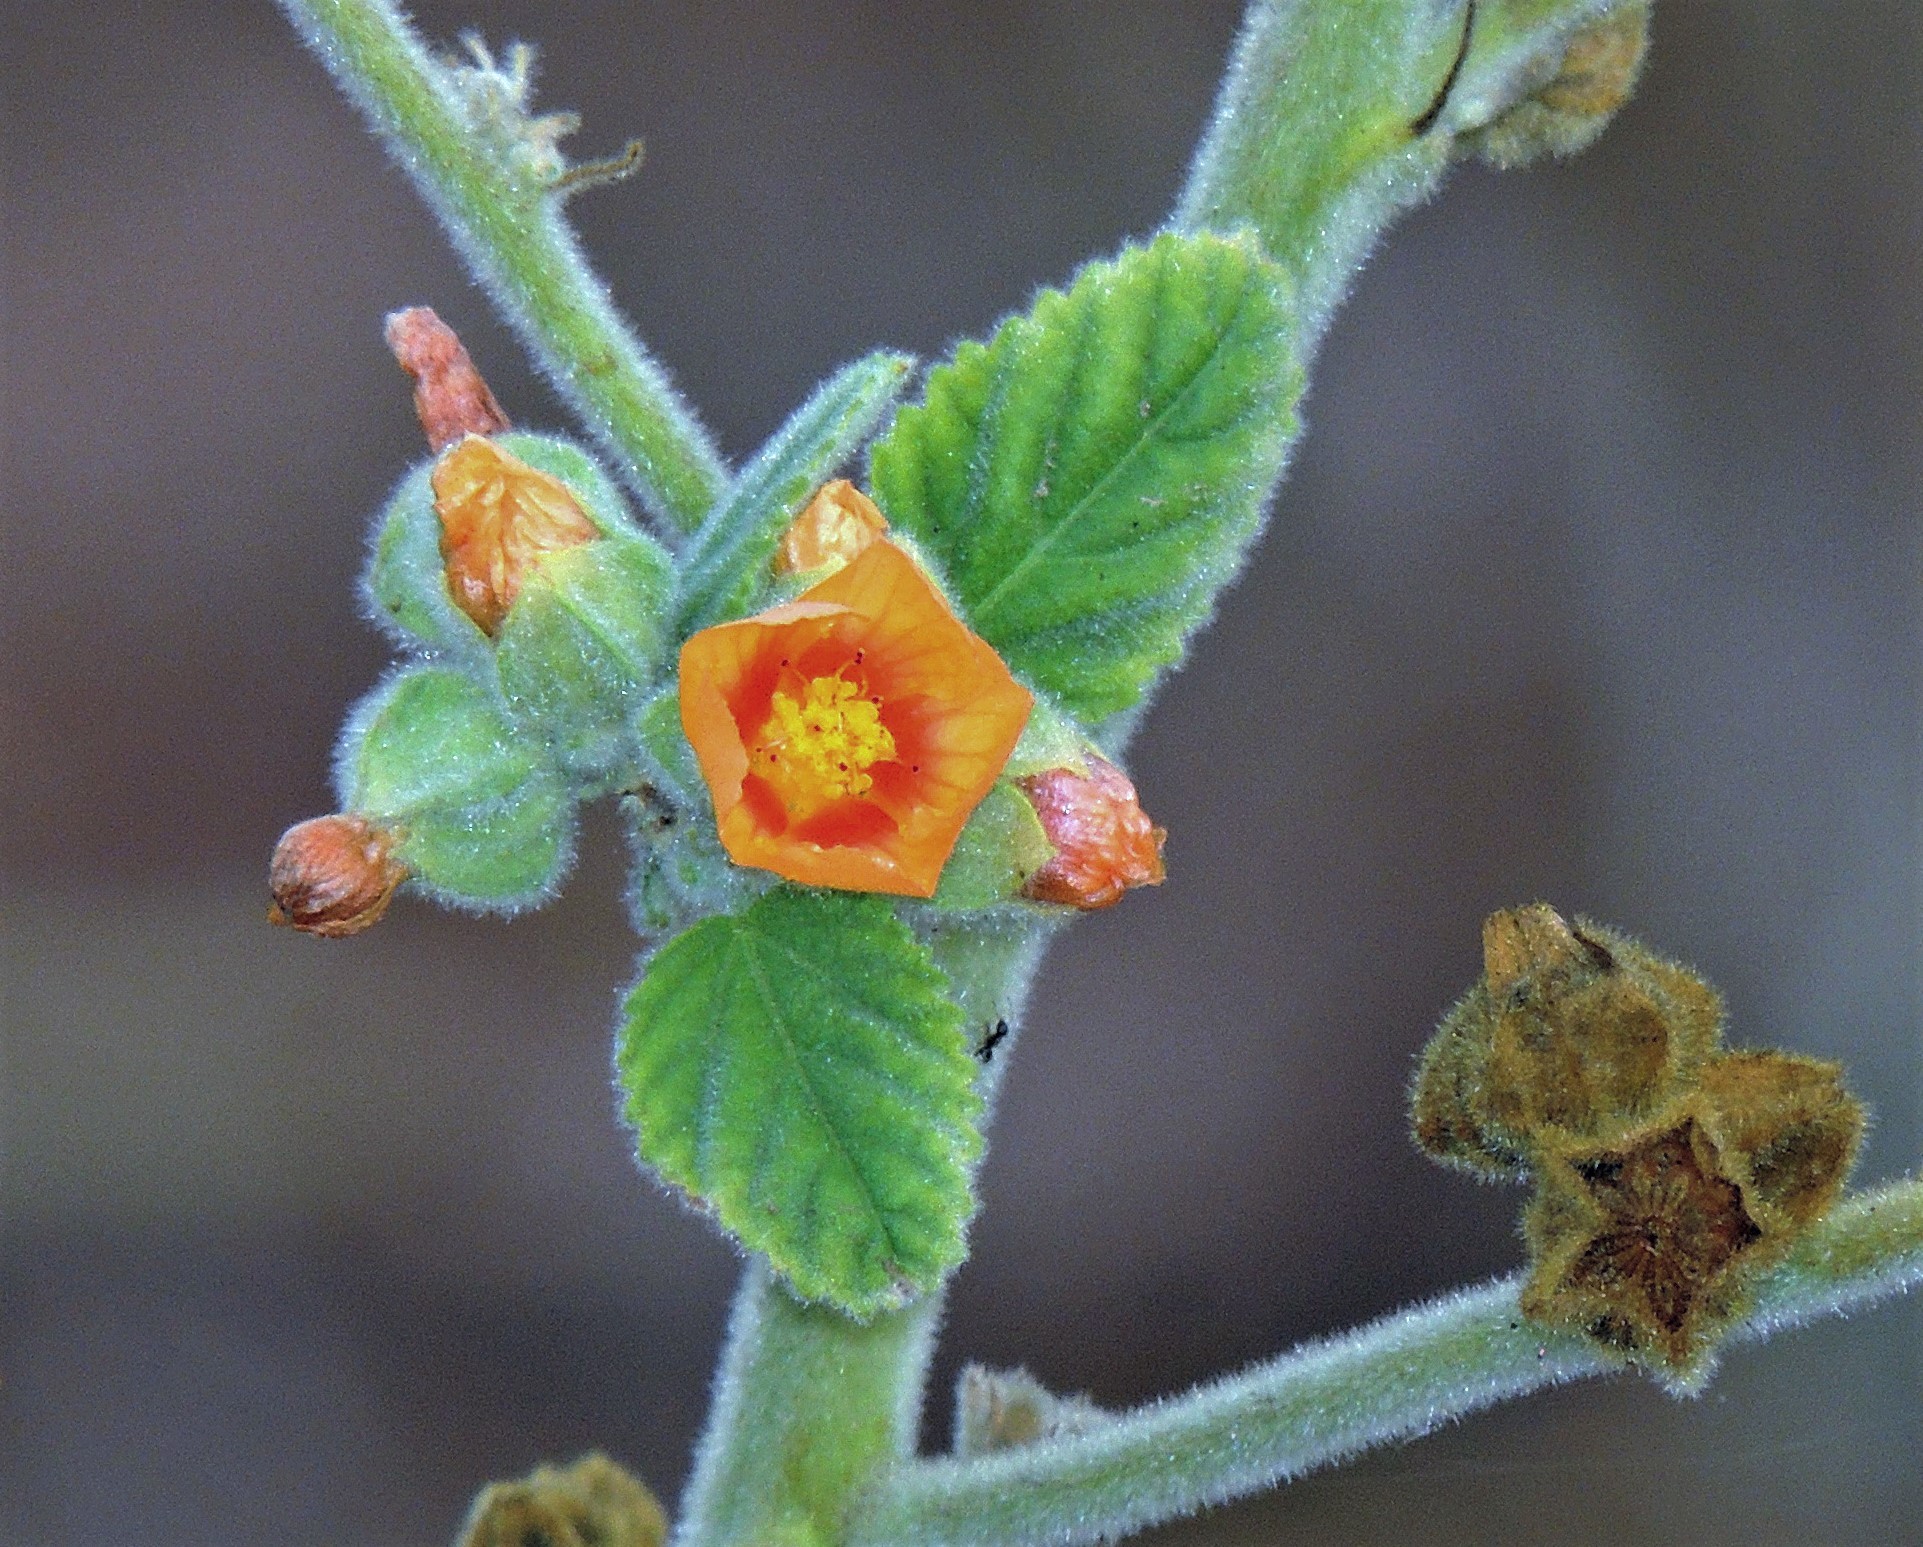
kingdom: Plantae
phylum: Tracheophyta
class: Magnoliopsida
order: Malvales
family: Malvaceae
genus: Sida
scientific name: Sida cordifolia
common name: Ilima
